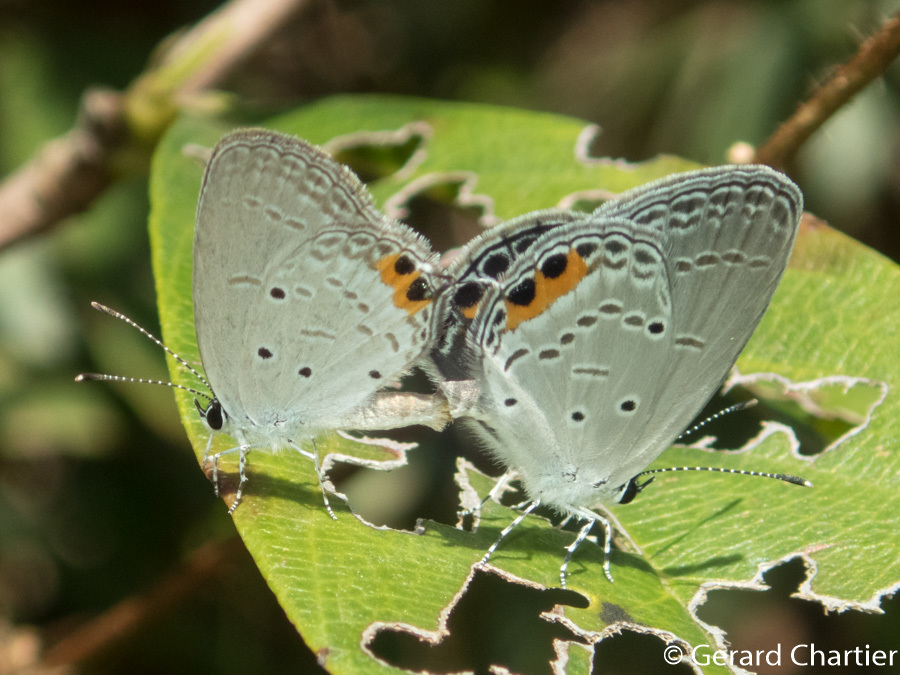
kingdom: Animalia
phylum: Arthropoda
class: Insecta
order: Lepidoptera
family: Lycaenidae
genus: Everes
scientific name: Everes lacturnus
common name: Orange-tipped pea-blue
